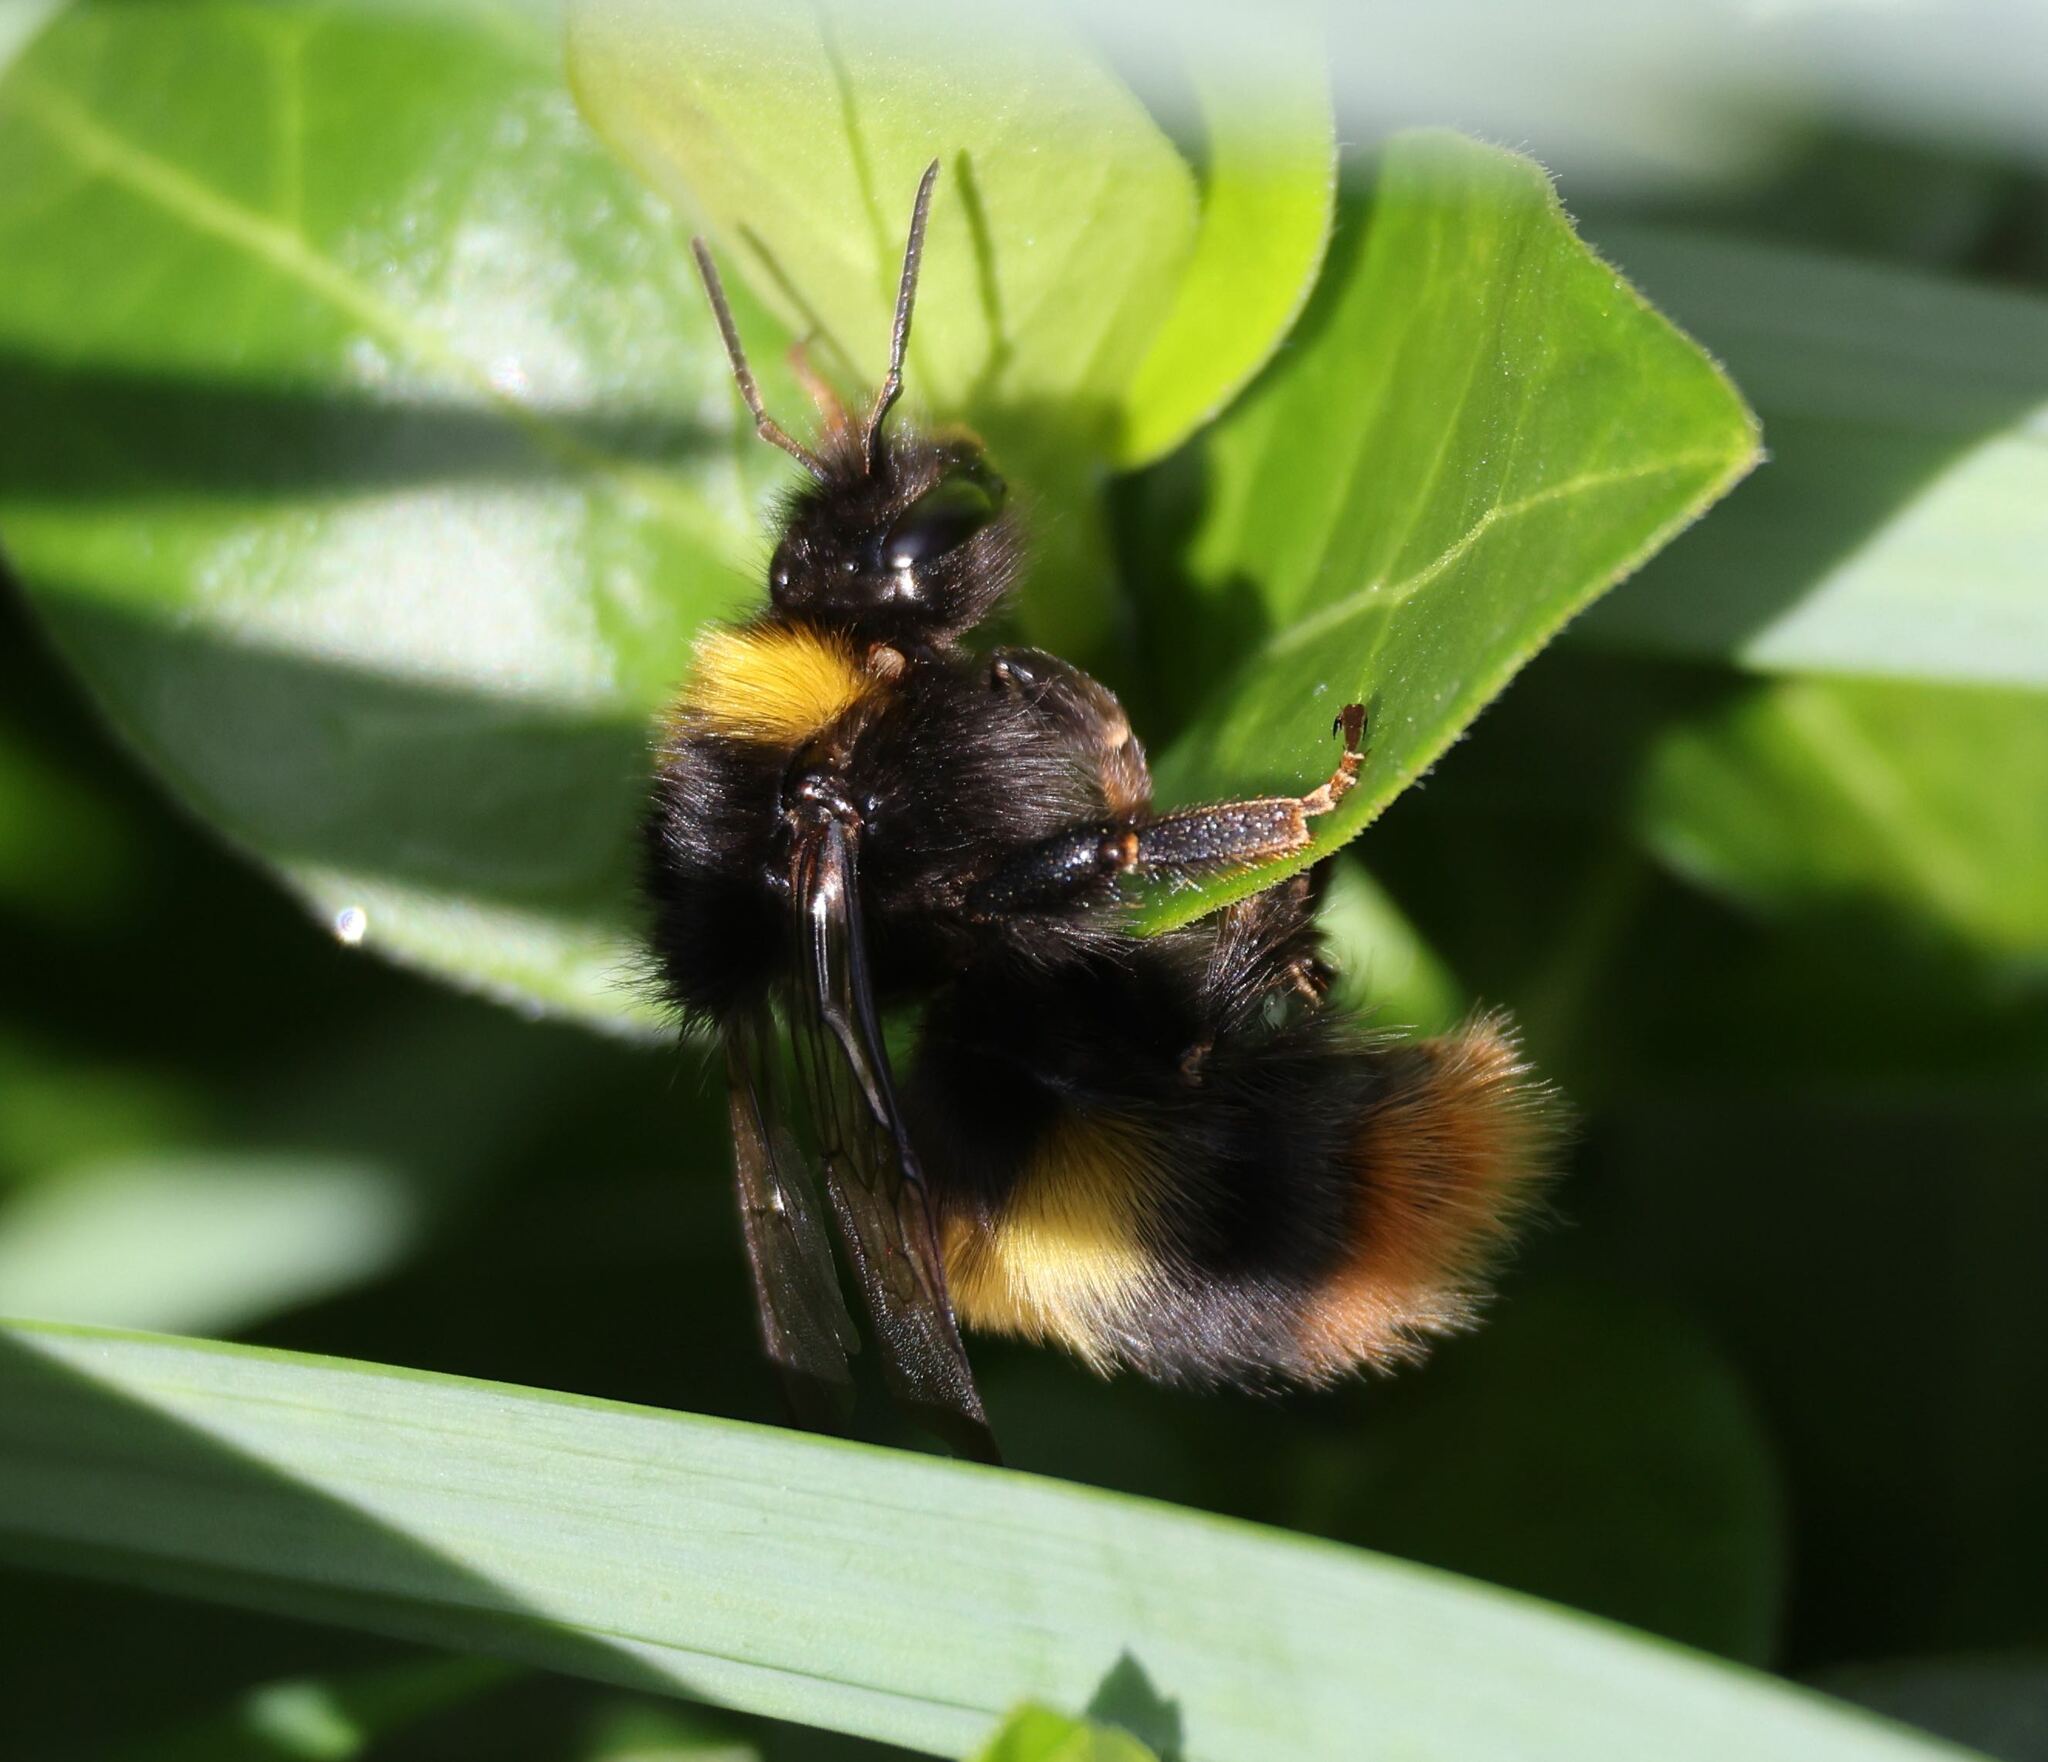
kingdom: Animalia
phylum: Arthropoda
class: Insecta
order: Hymenoptera
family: Apidae
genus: Bombus
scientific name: Bombus pratorum
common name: Early humble-bee
